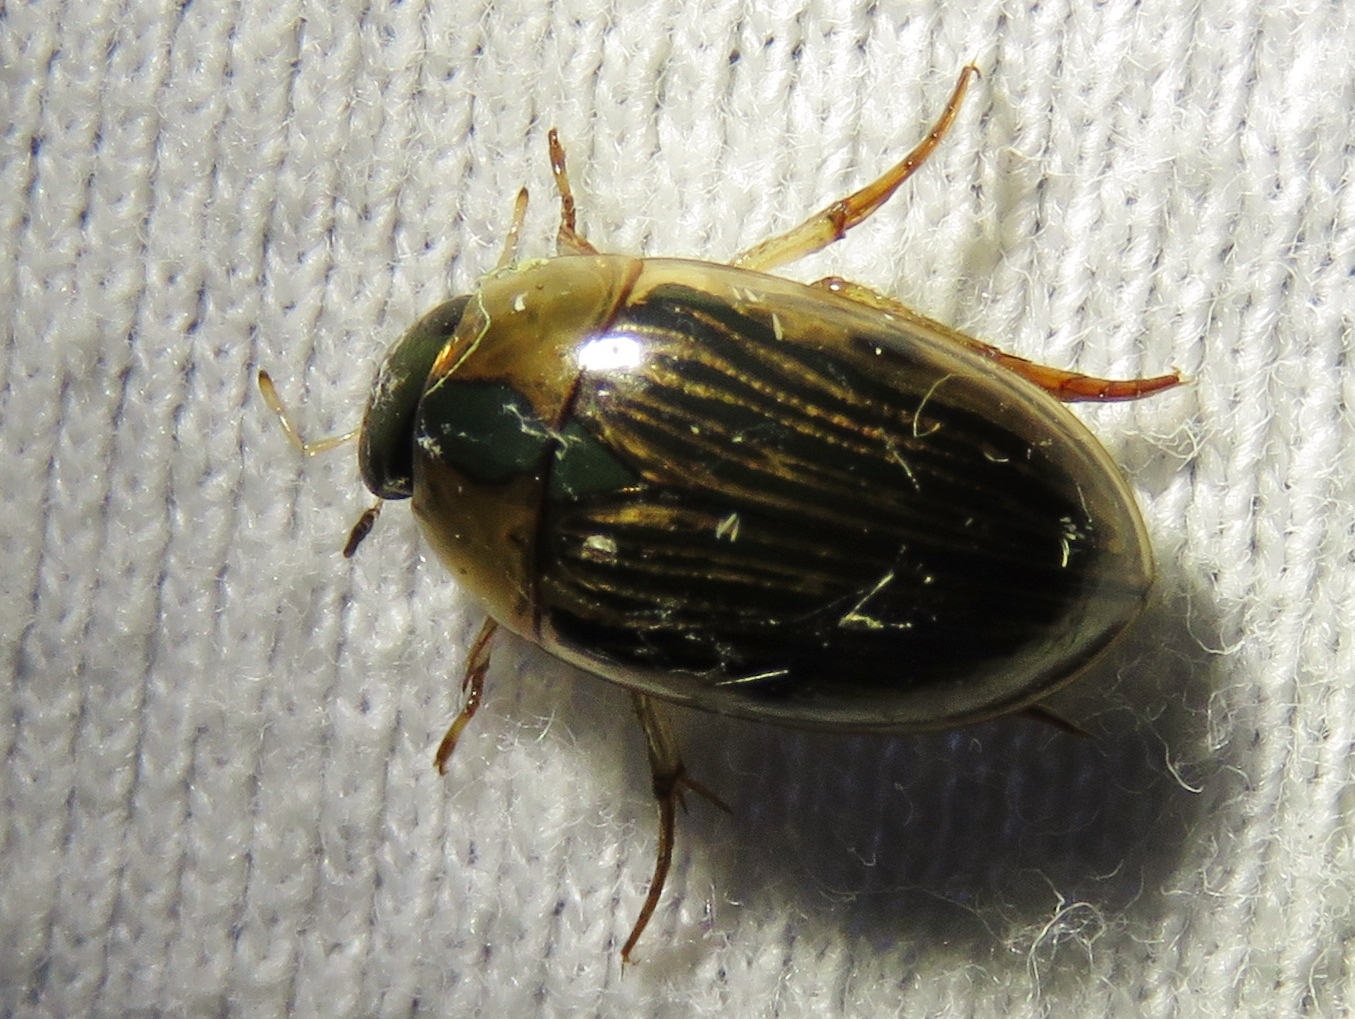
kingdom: Animalia
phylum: Arthropoda
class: Insecta
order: Coleoptera
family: Hydrophilidae
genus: Tropisternus
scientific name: Tropisternus collaris
